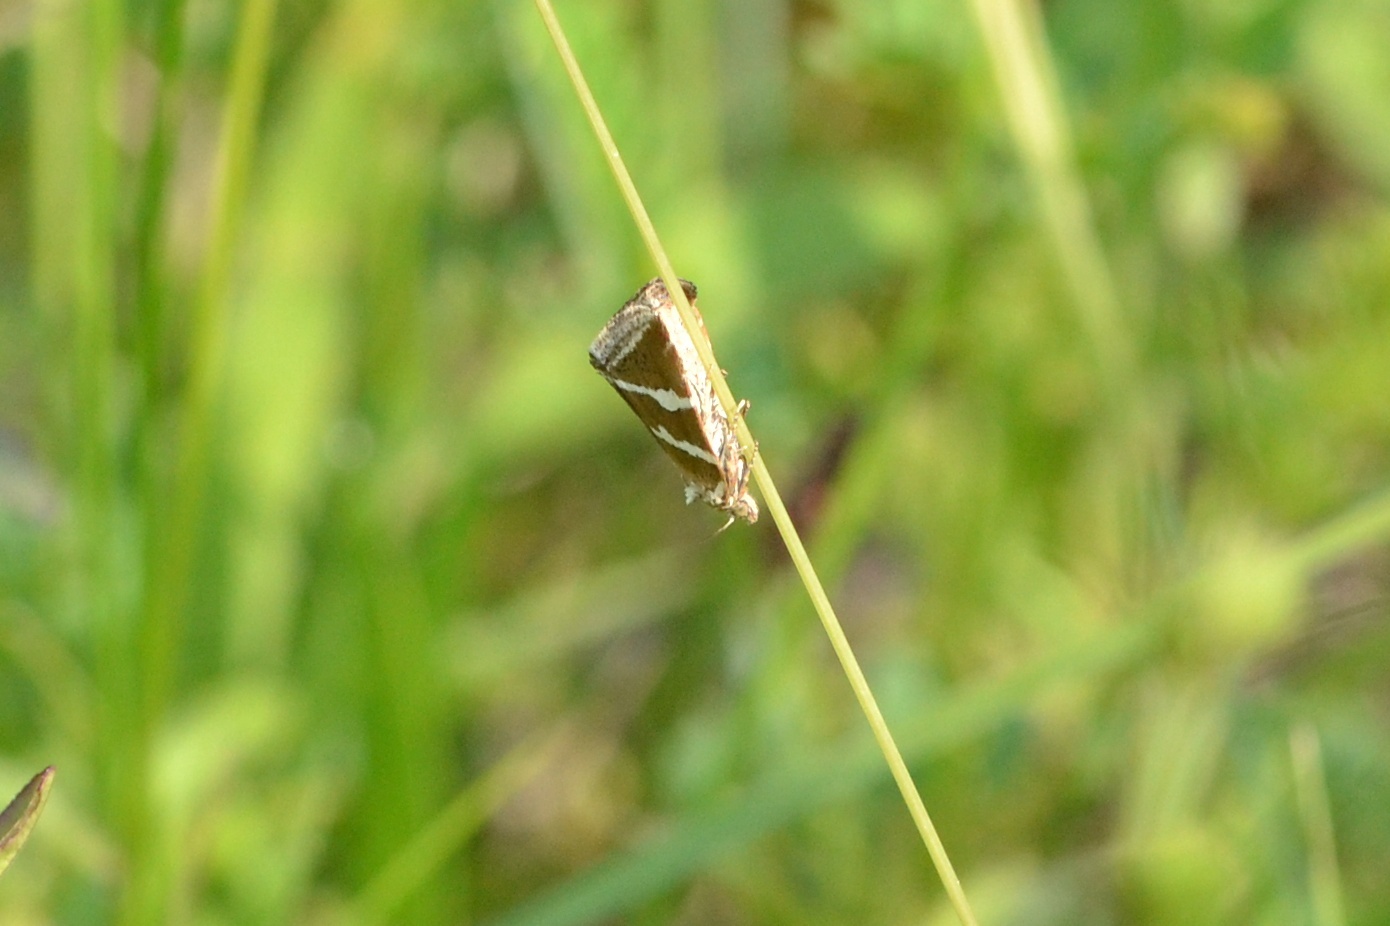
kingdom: Animalia
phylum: Arthropoda
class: Insecta
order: Lepidoptera
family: Noctuidae
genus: Deltote
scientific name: Deltote bankiana
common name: Silver barred
